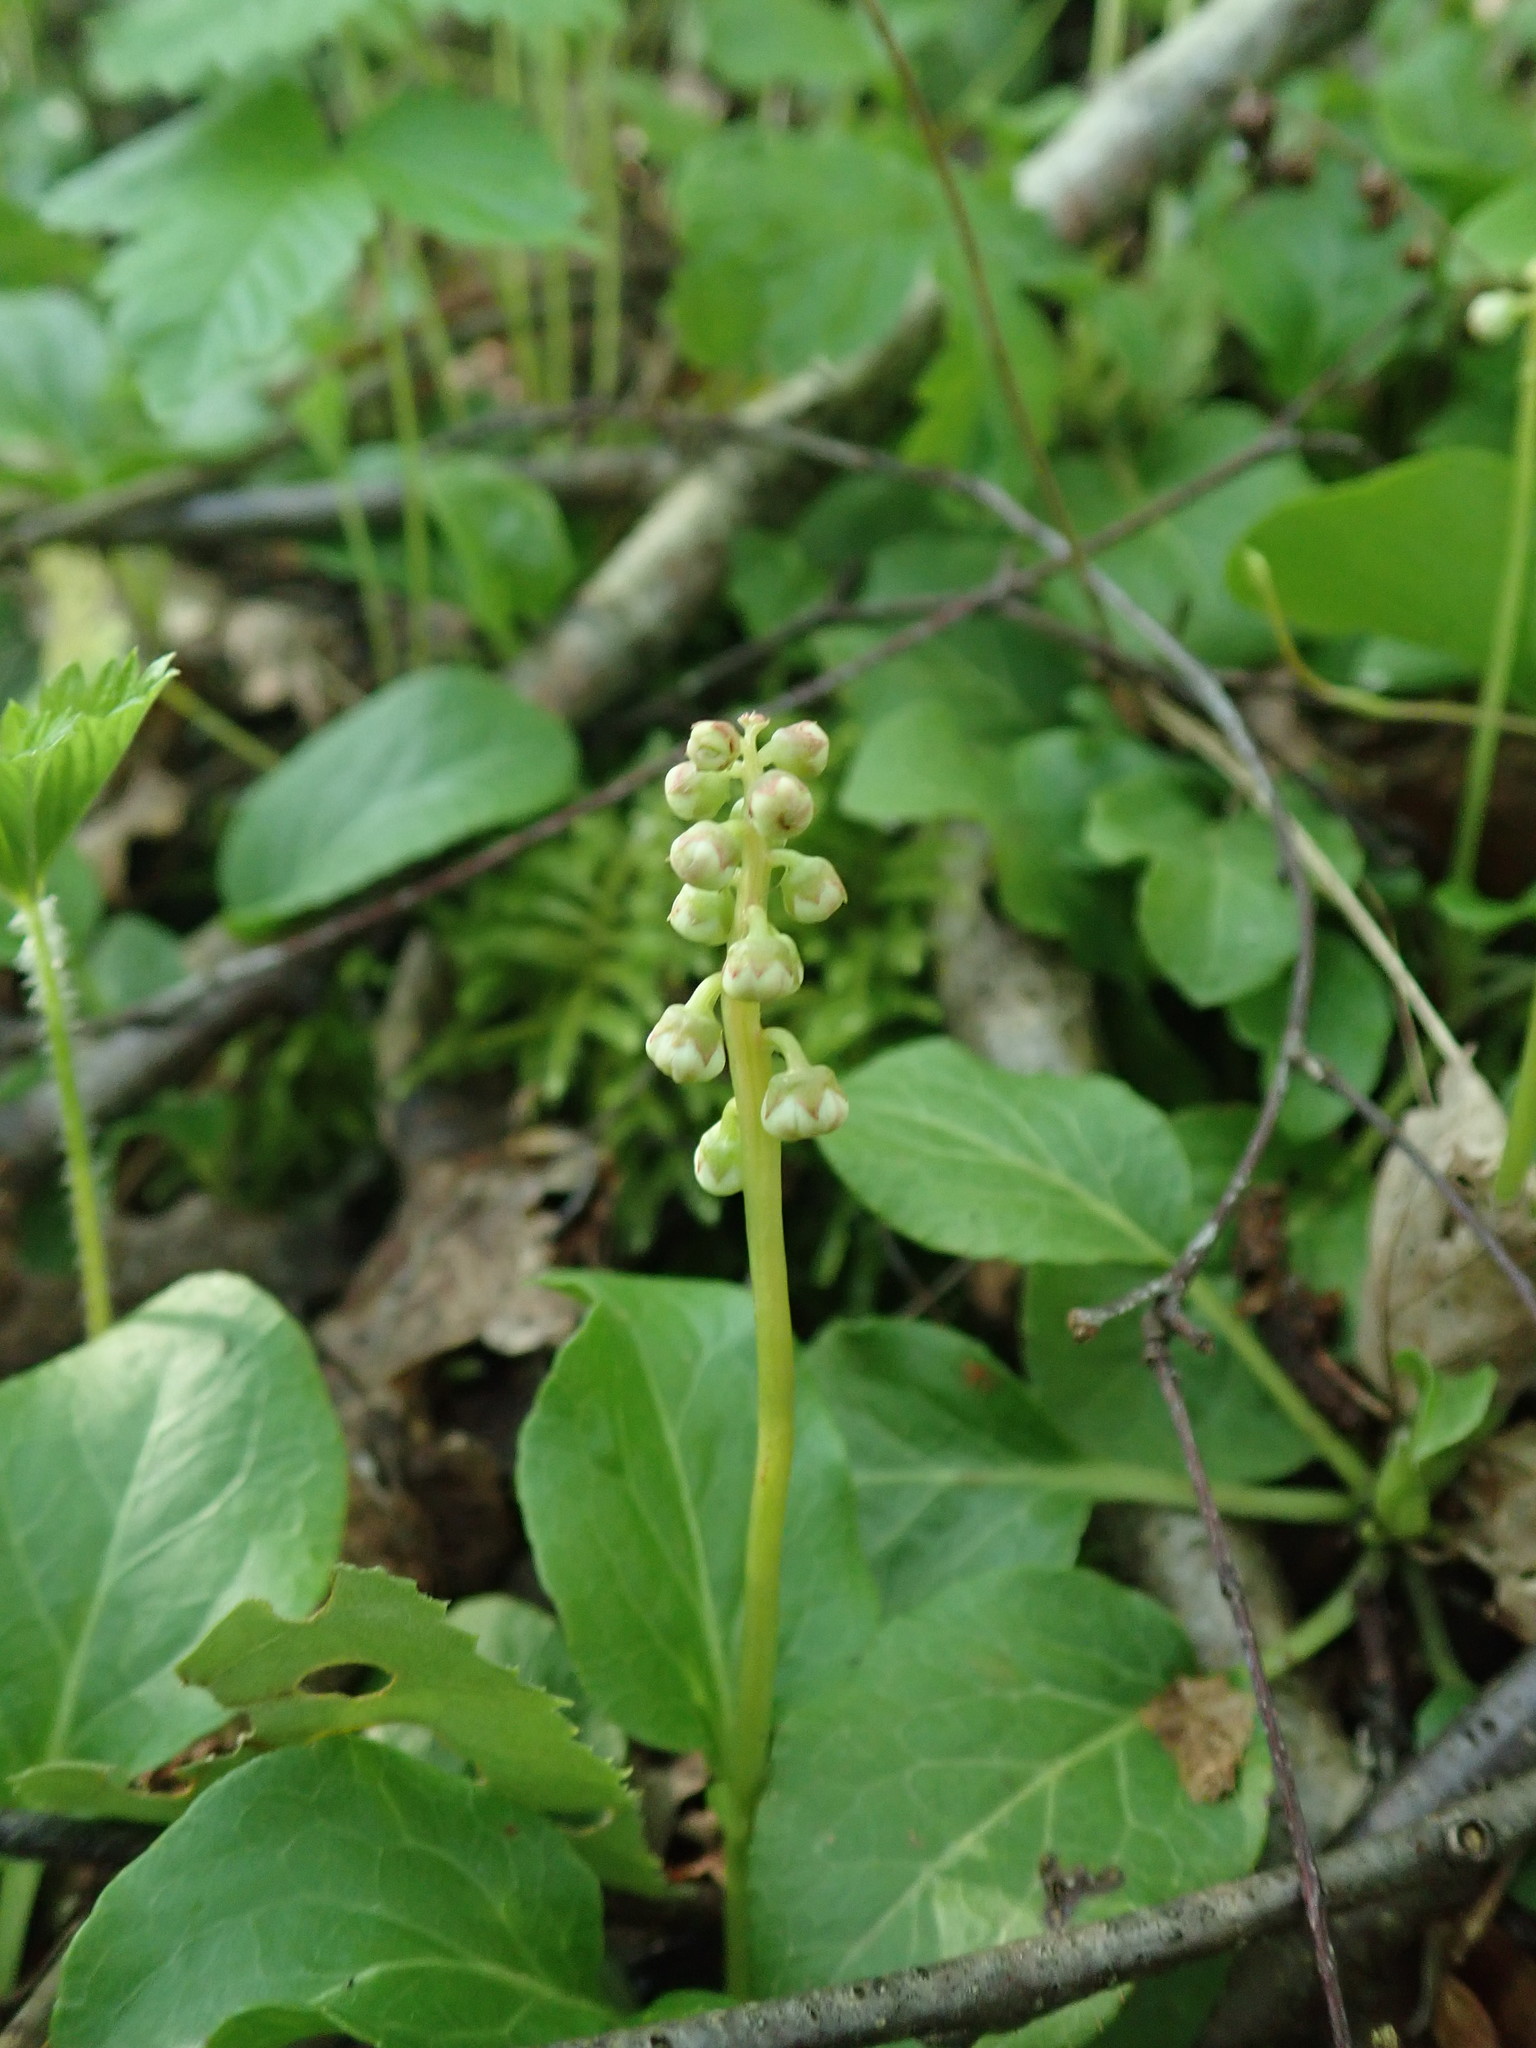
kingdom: Plantae
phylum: Tracheophyta
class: Magnoliopsida
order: Ericales
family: Ericaceae
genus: Pyrola
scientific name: Pyrola minor
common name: Common wintergreen
